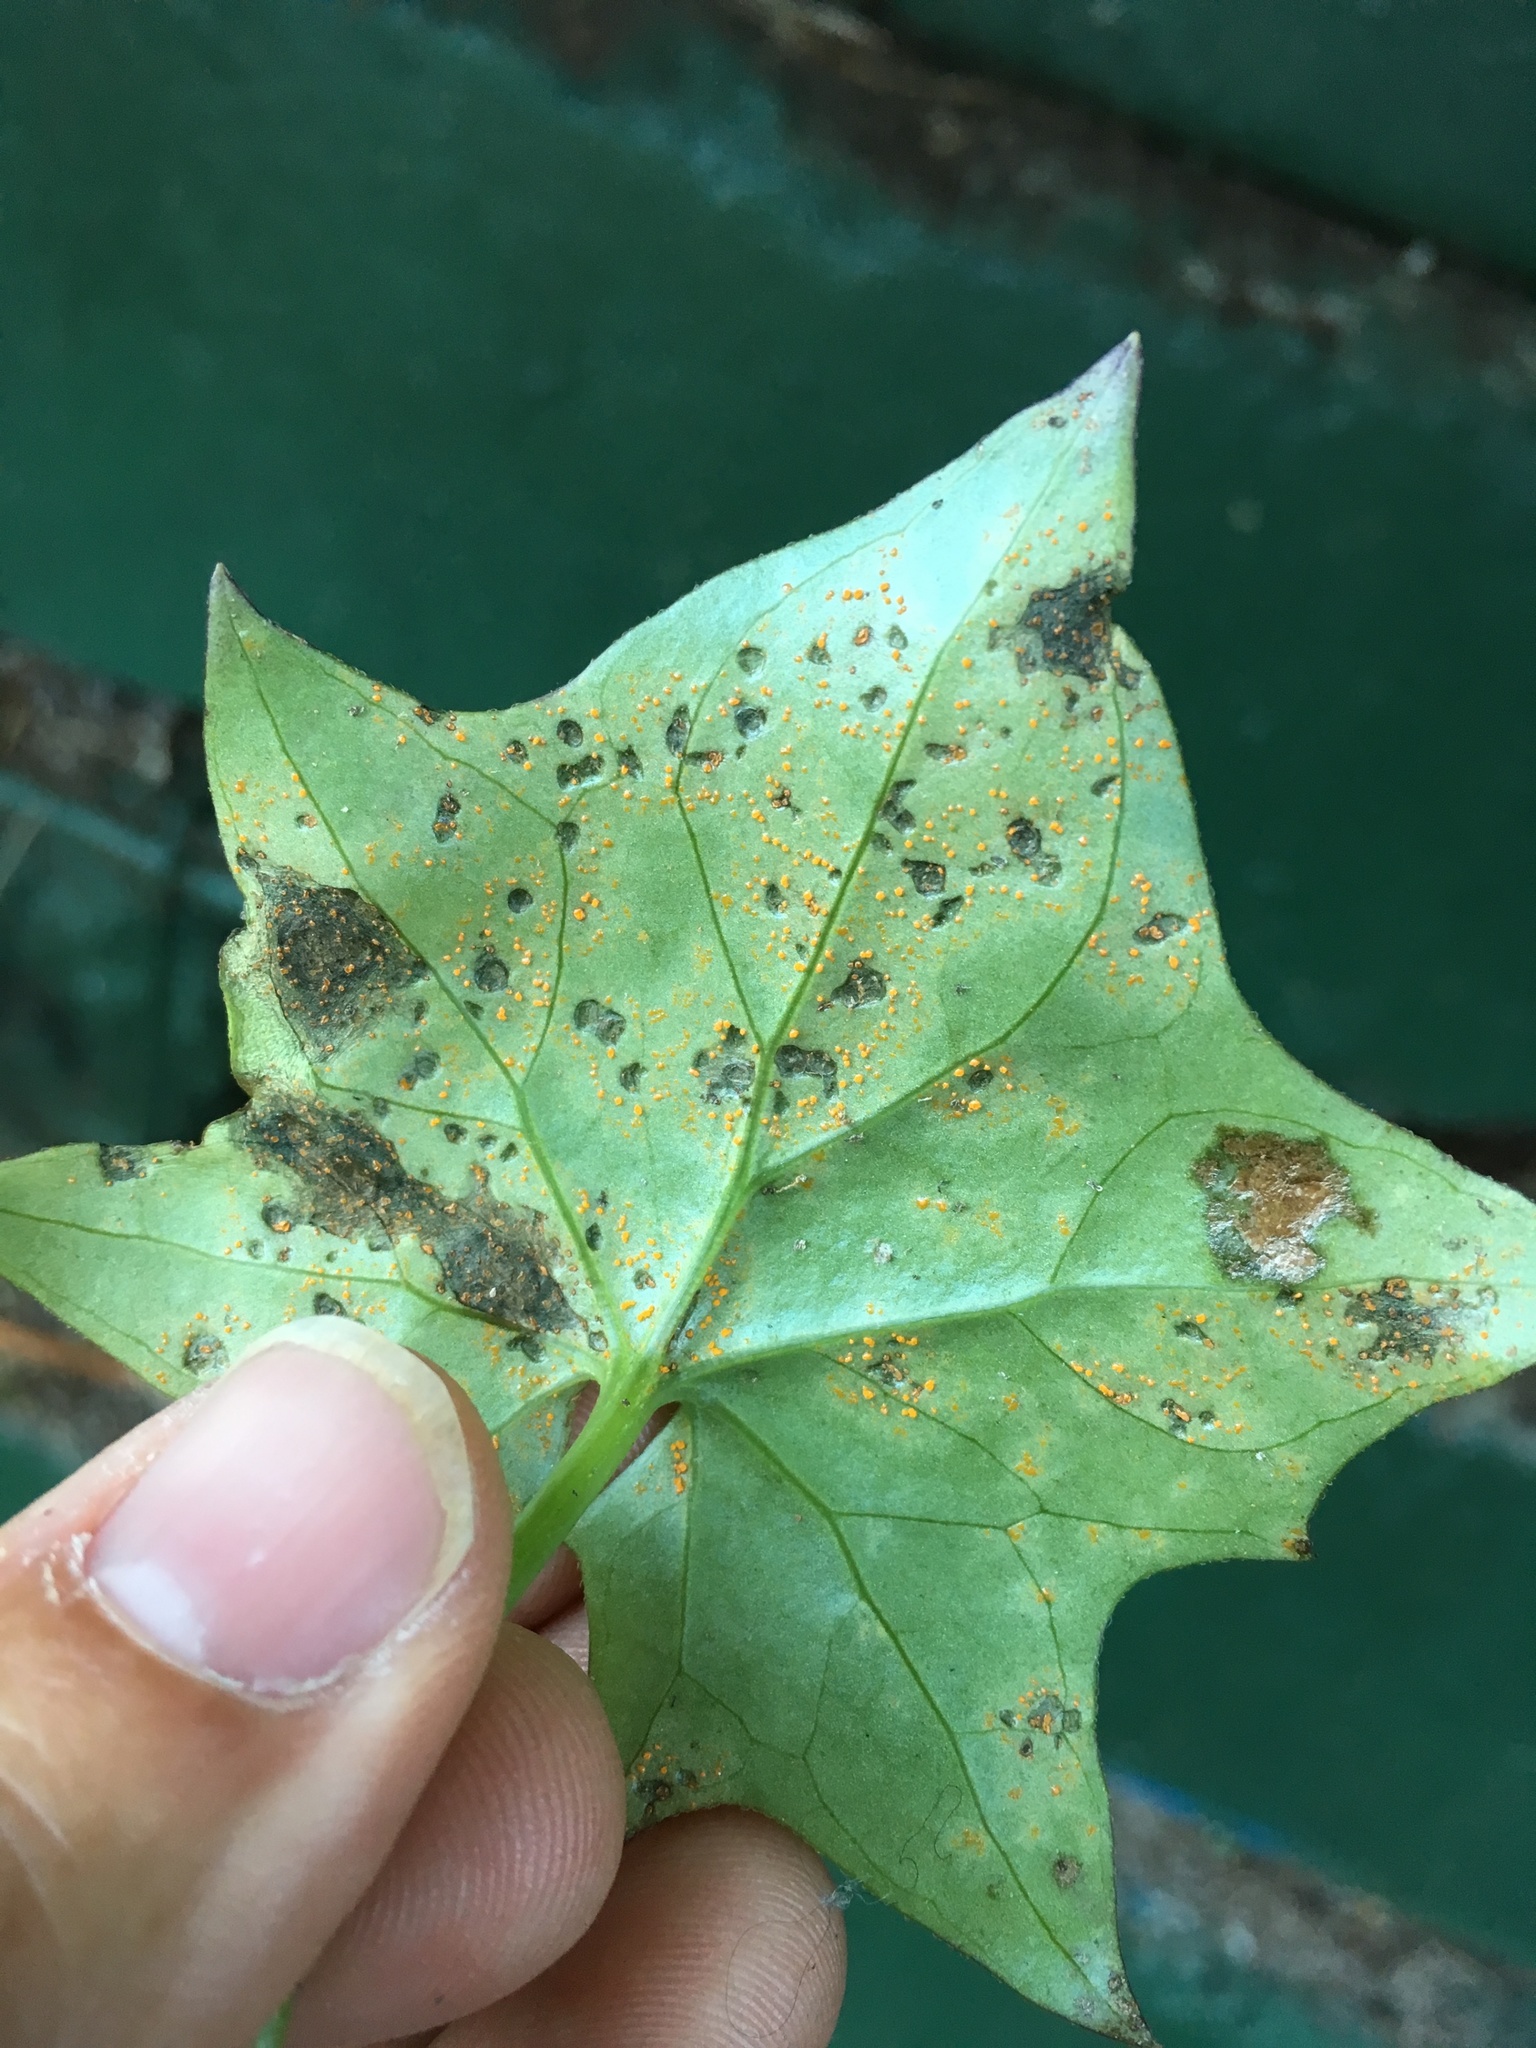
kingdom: Fungi
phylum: Basidiomycota
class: Pucciniomycetes
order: Pucciniales
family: Coleosporiaceae
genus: Coleosporium
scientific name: Coleosporium tussilaginis
